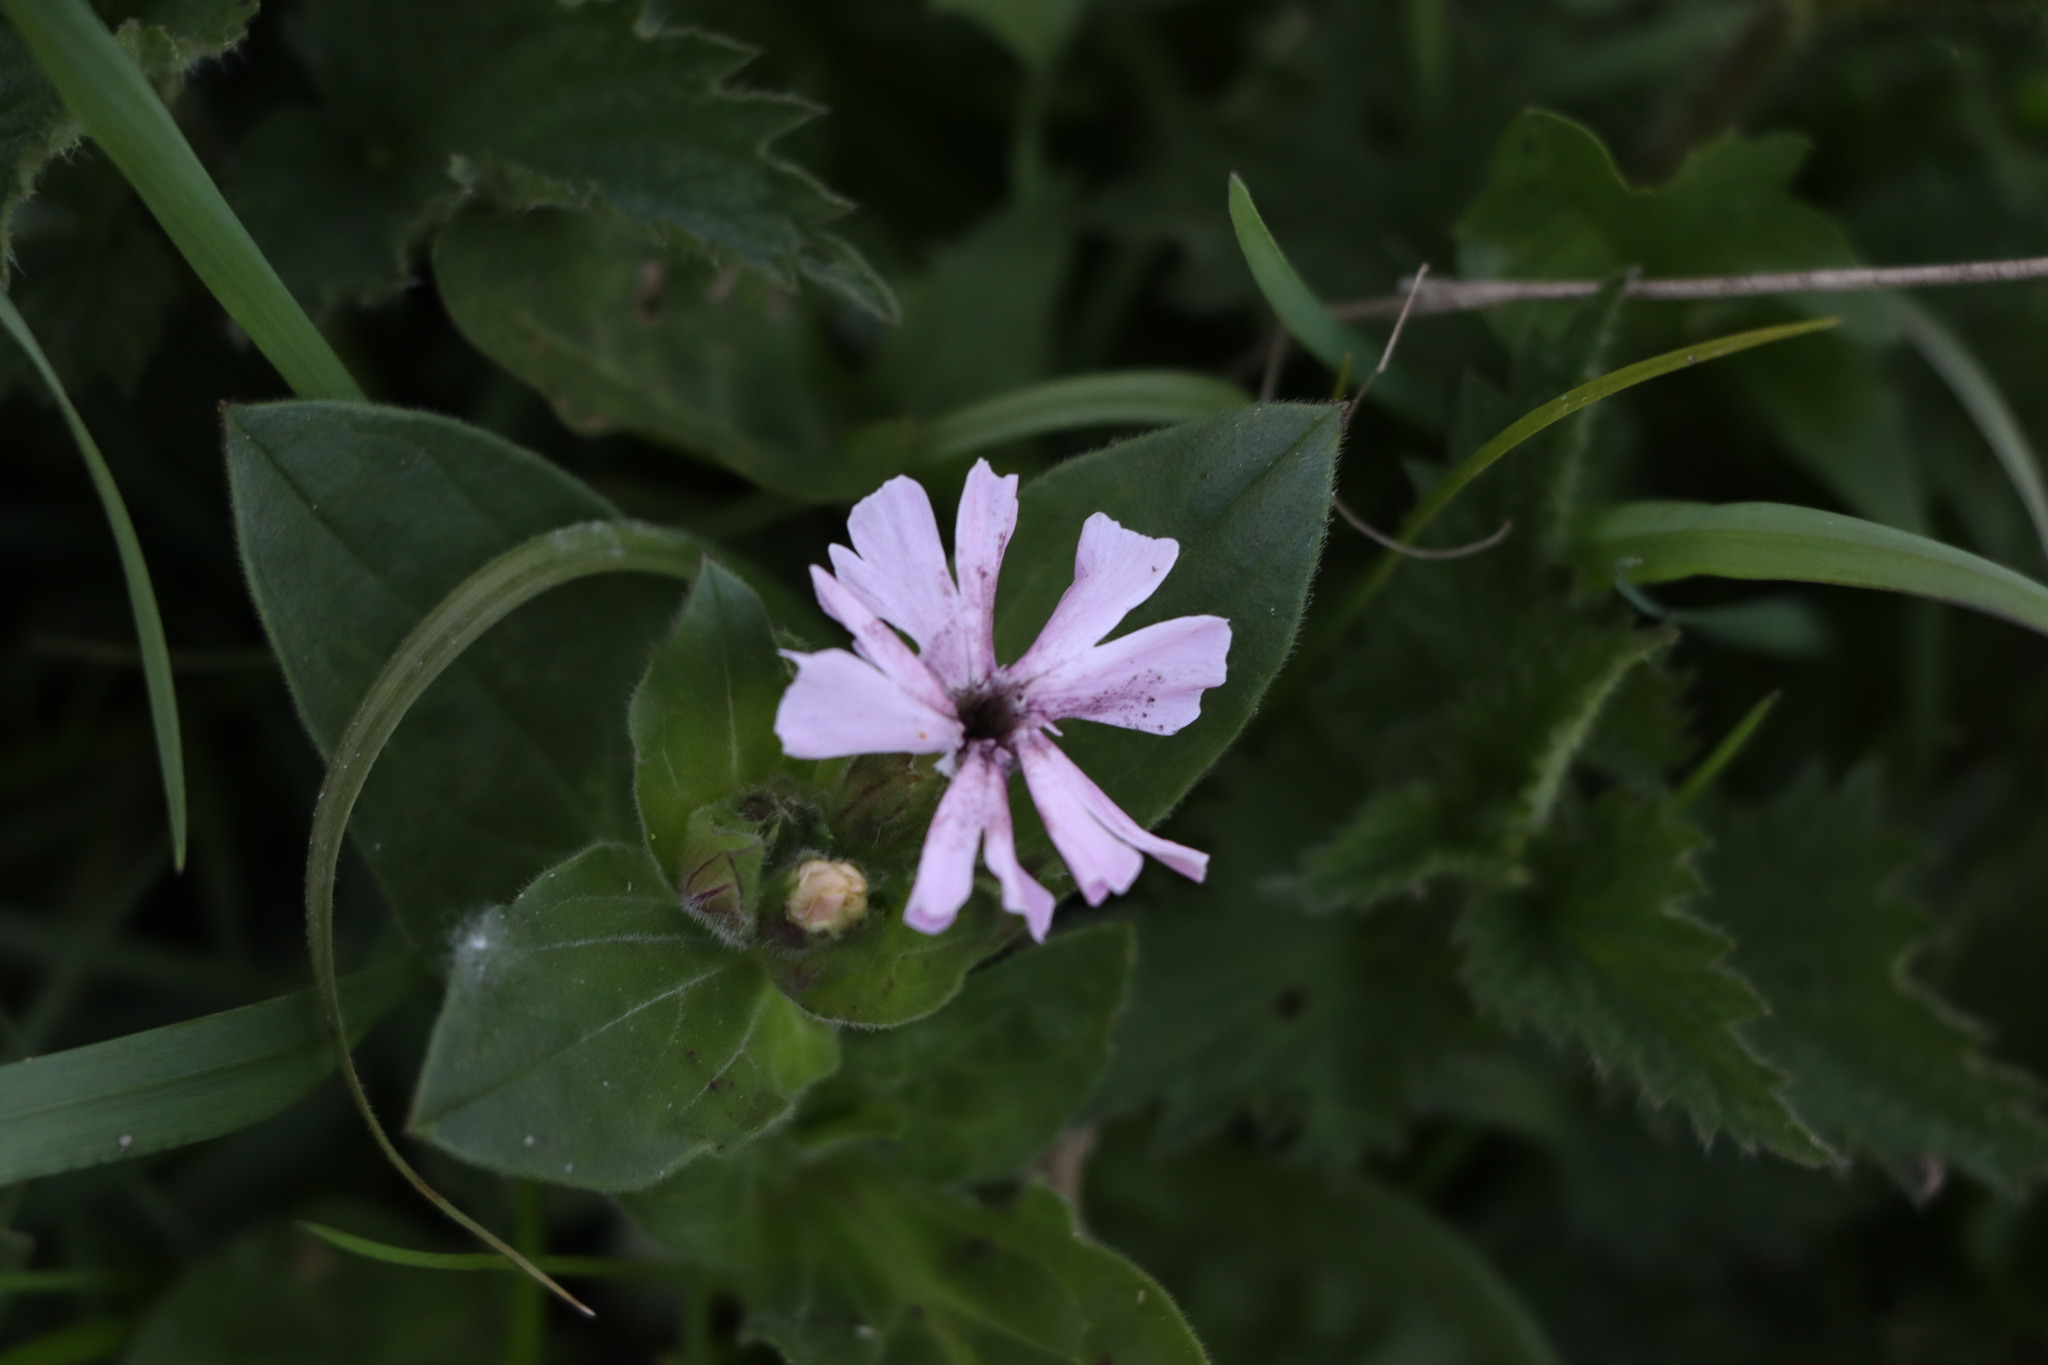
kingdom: Plantae
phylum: Tracheophyta
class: Magnoliopsida
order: Caryophyllales
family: Caryophyllaceae
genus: Silene
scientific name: Silene dioica
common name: Red campion
